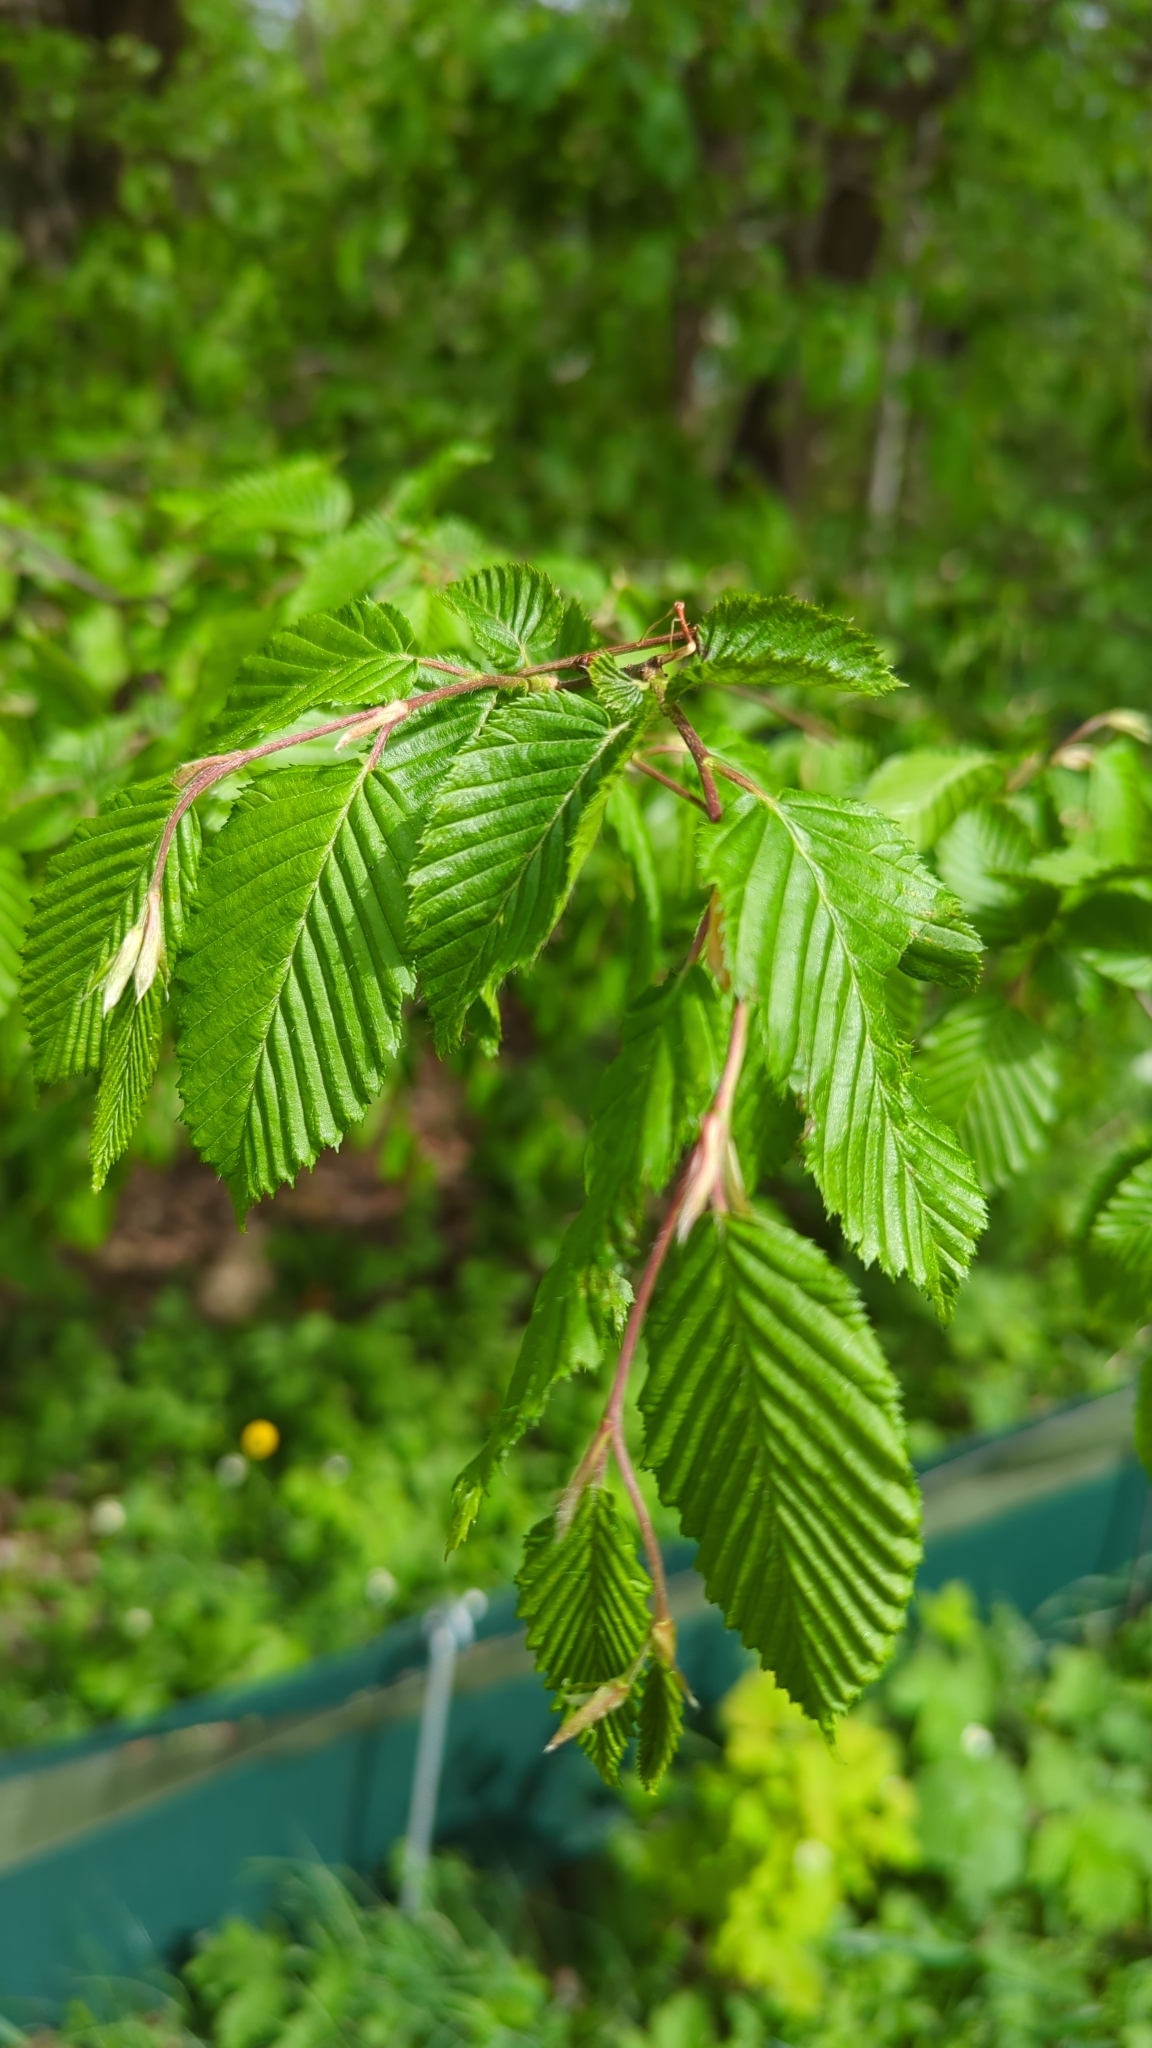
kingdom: Plantae
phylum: Tracheophyta
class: Magnoliopsida
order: Fagales
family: Betulaceae
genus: Carpinus
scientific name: Carpinus betulus
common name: Hornbeam
